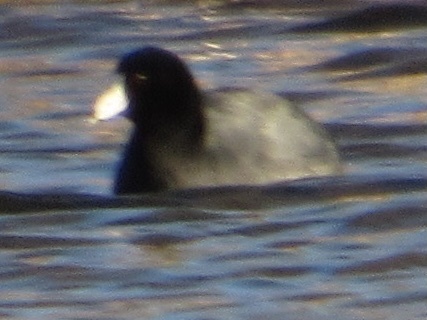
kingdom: Animalia
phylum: Chordata
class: Aves
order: Gruiformes
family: Rallidae
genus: Fulica
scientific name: Fulica americana
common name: American coot
